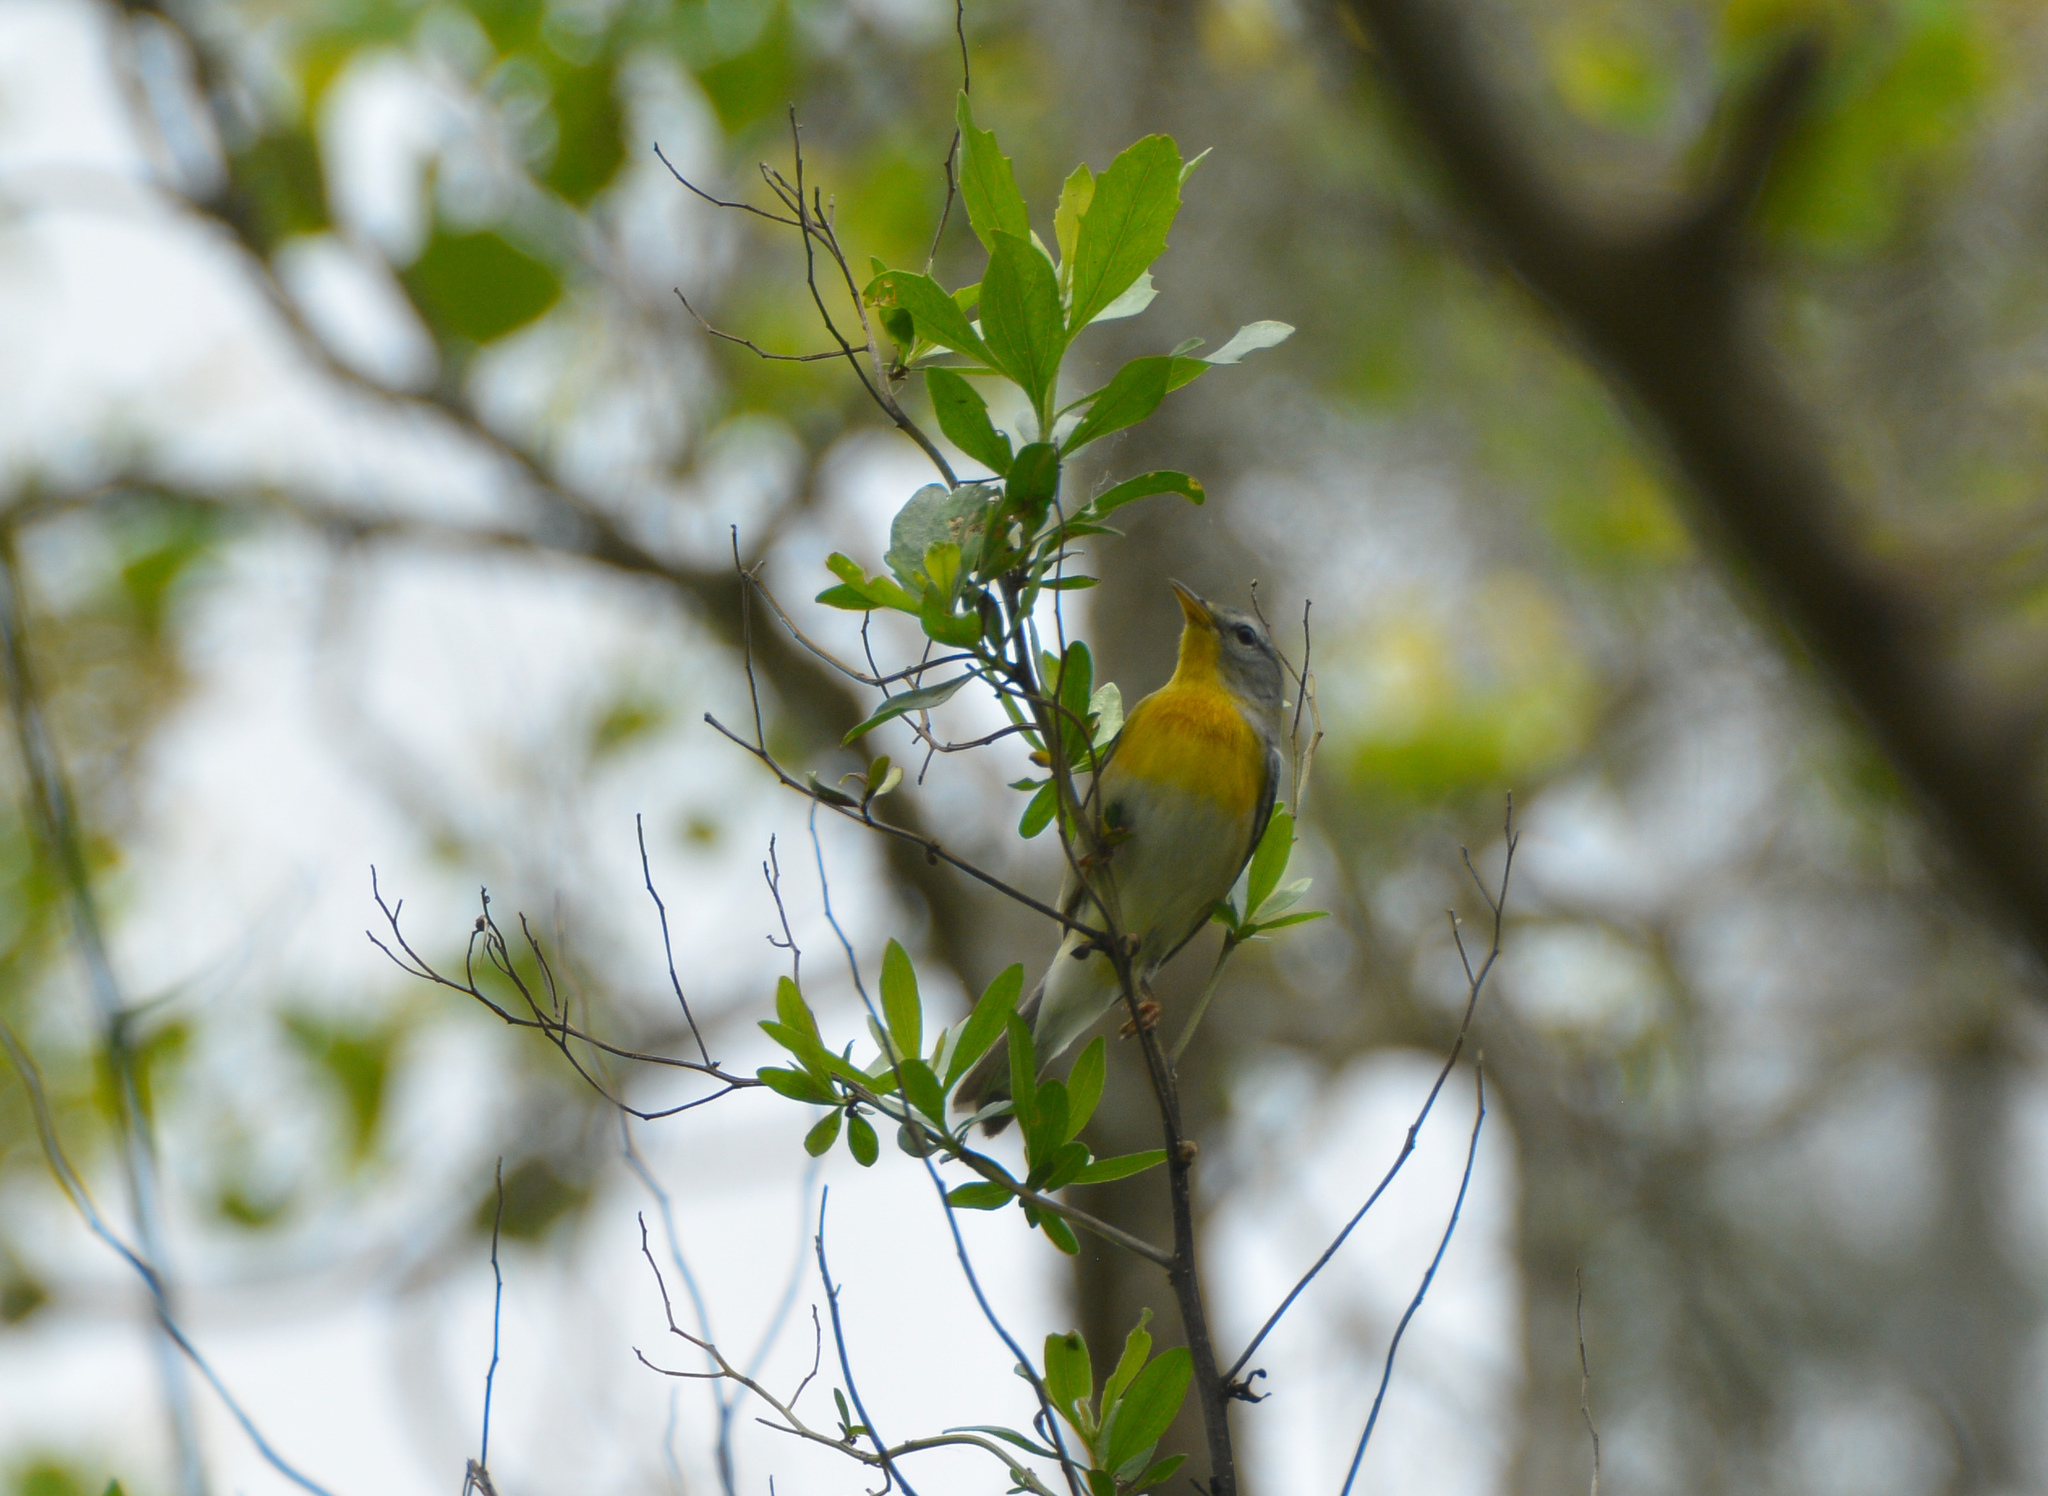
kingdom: Animalia
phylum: Chordata
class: Aves
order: Passeriformes
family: Parulidae
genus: Setophaga
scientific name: Setophaga americana
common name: Northern parula
